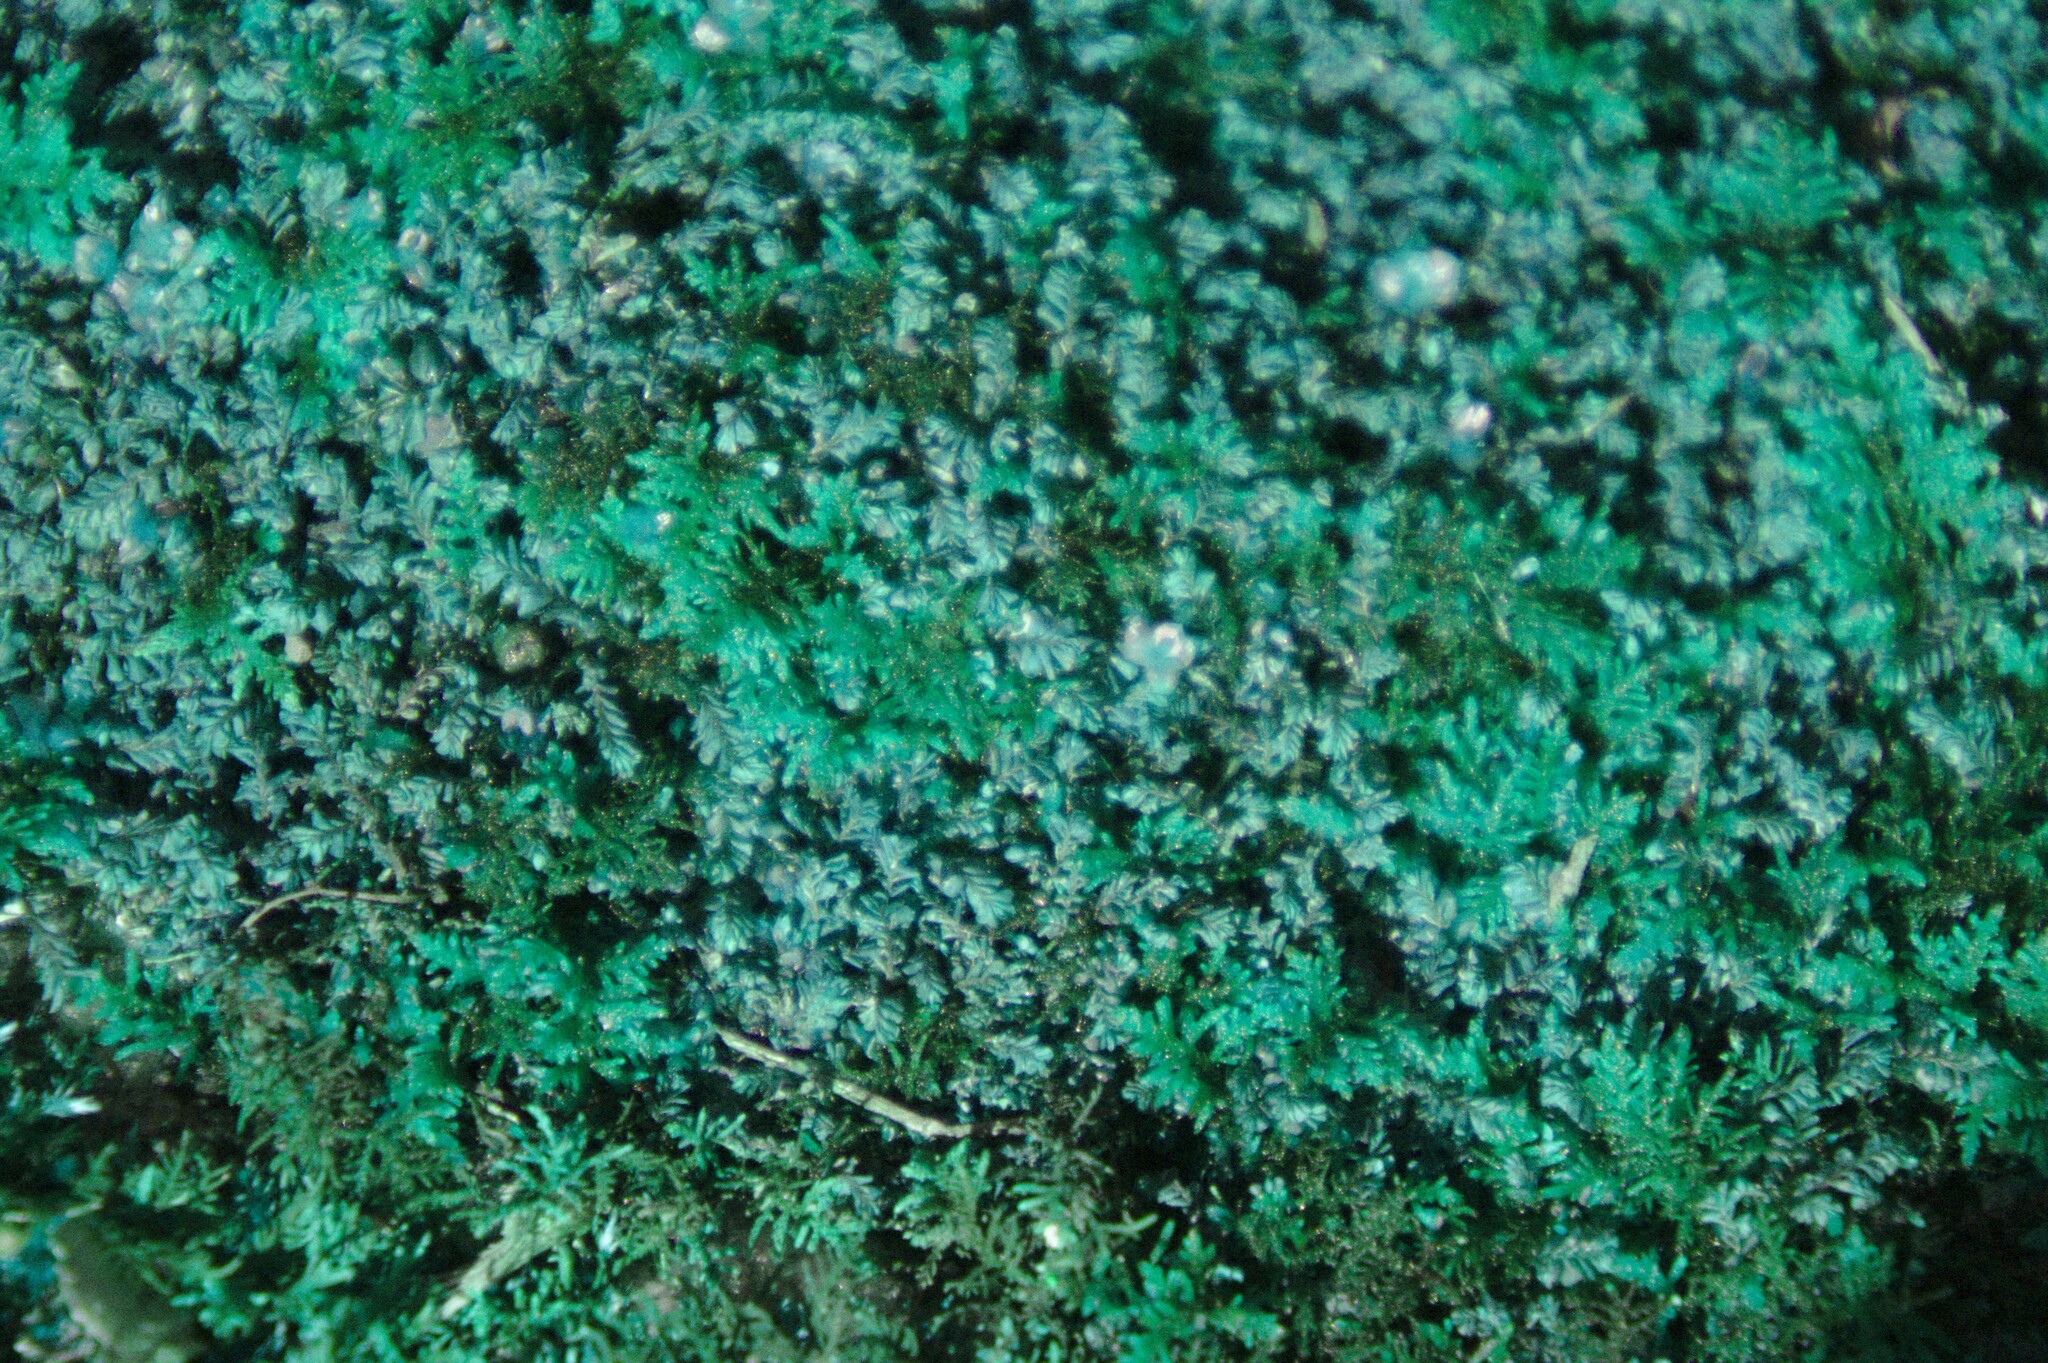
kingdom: Plantae
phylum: Marchantiophyta
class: Jungermanniopsida
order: Jungermanniales
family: Plagiochilaceae
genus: Plagiochila
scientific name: Plagiochila porelloides
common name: Lesser featherwort
